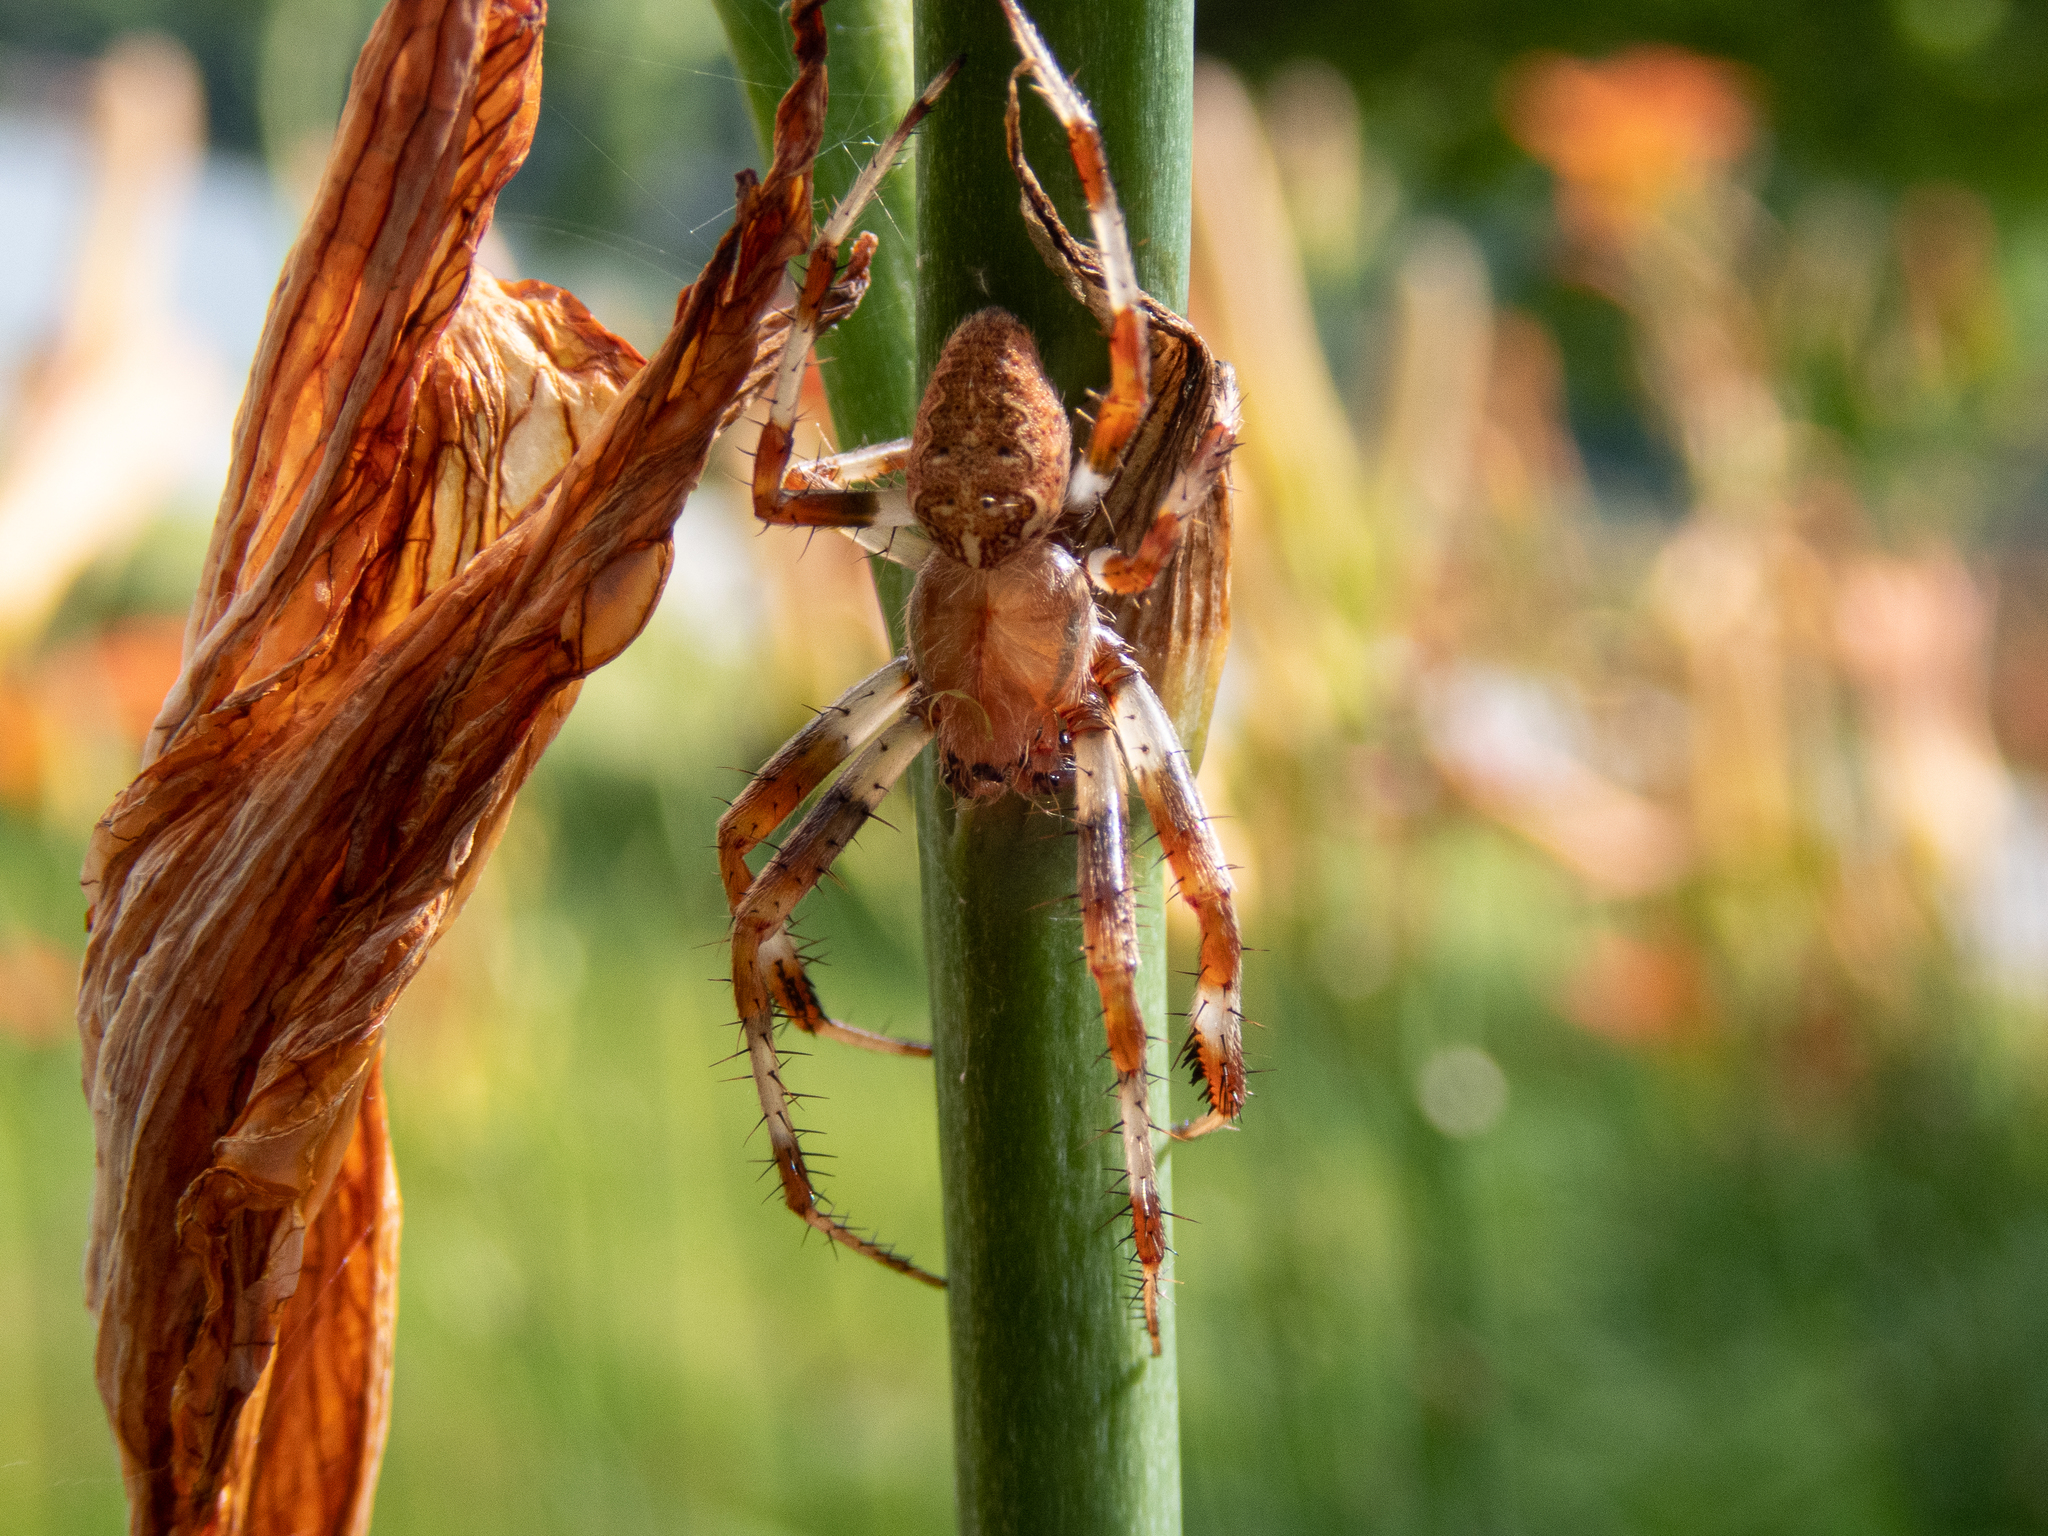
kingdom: Animalia
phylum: Arthropoda
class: Arachnida
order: Araneae
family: Araneidae
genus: Araneus
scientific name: Araneus marmoreus
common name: Marbled orbweaver
